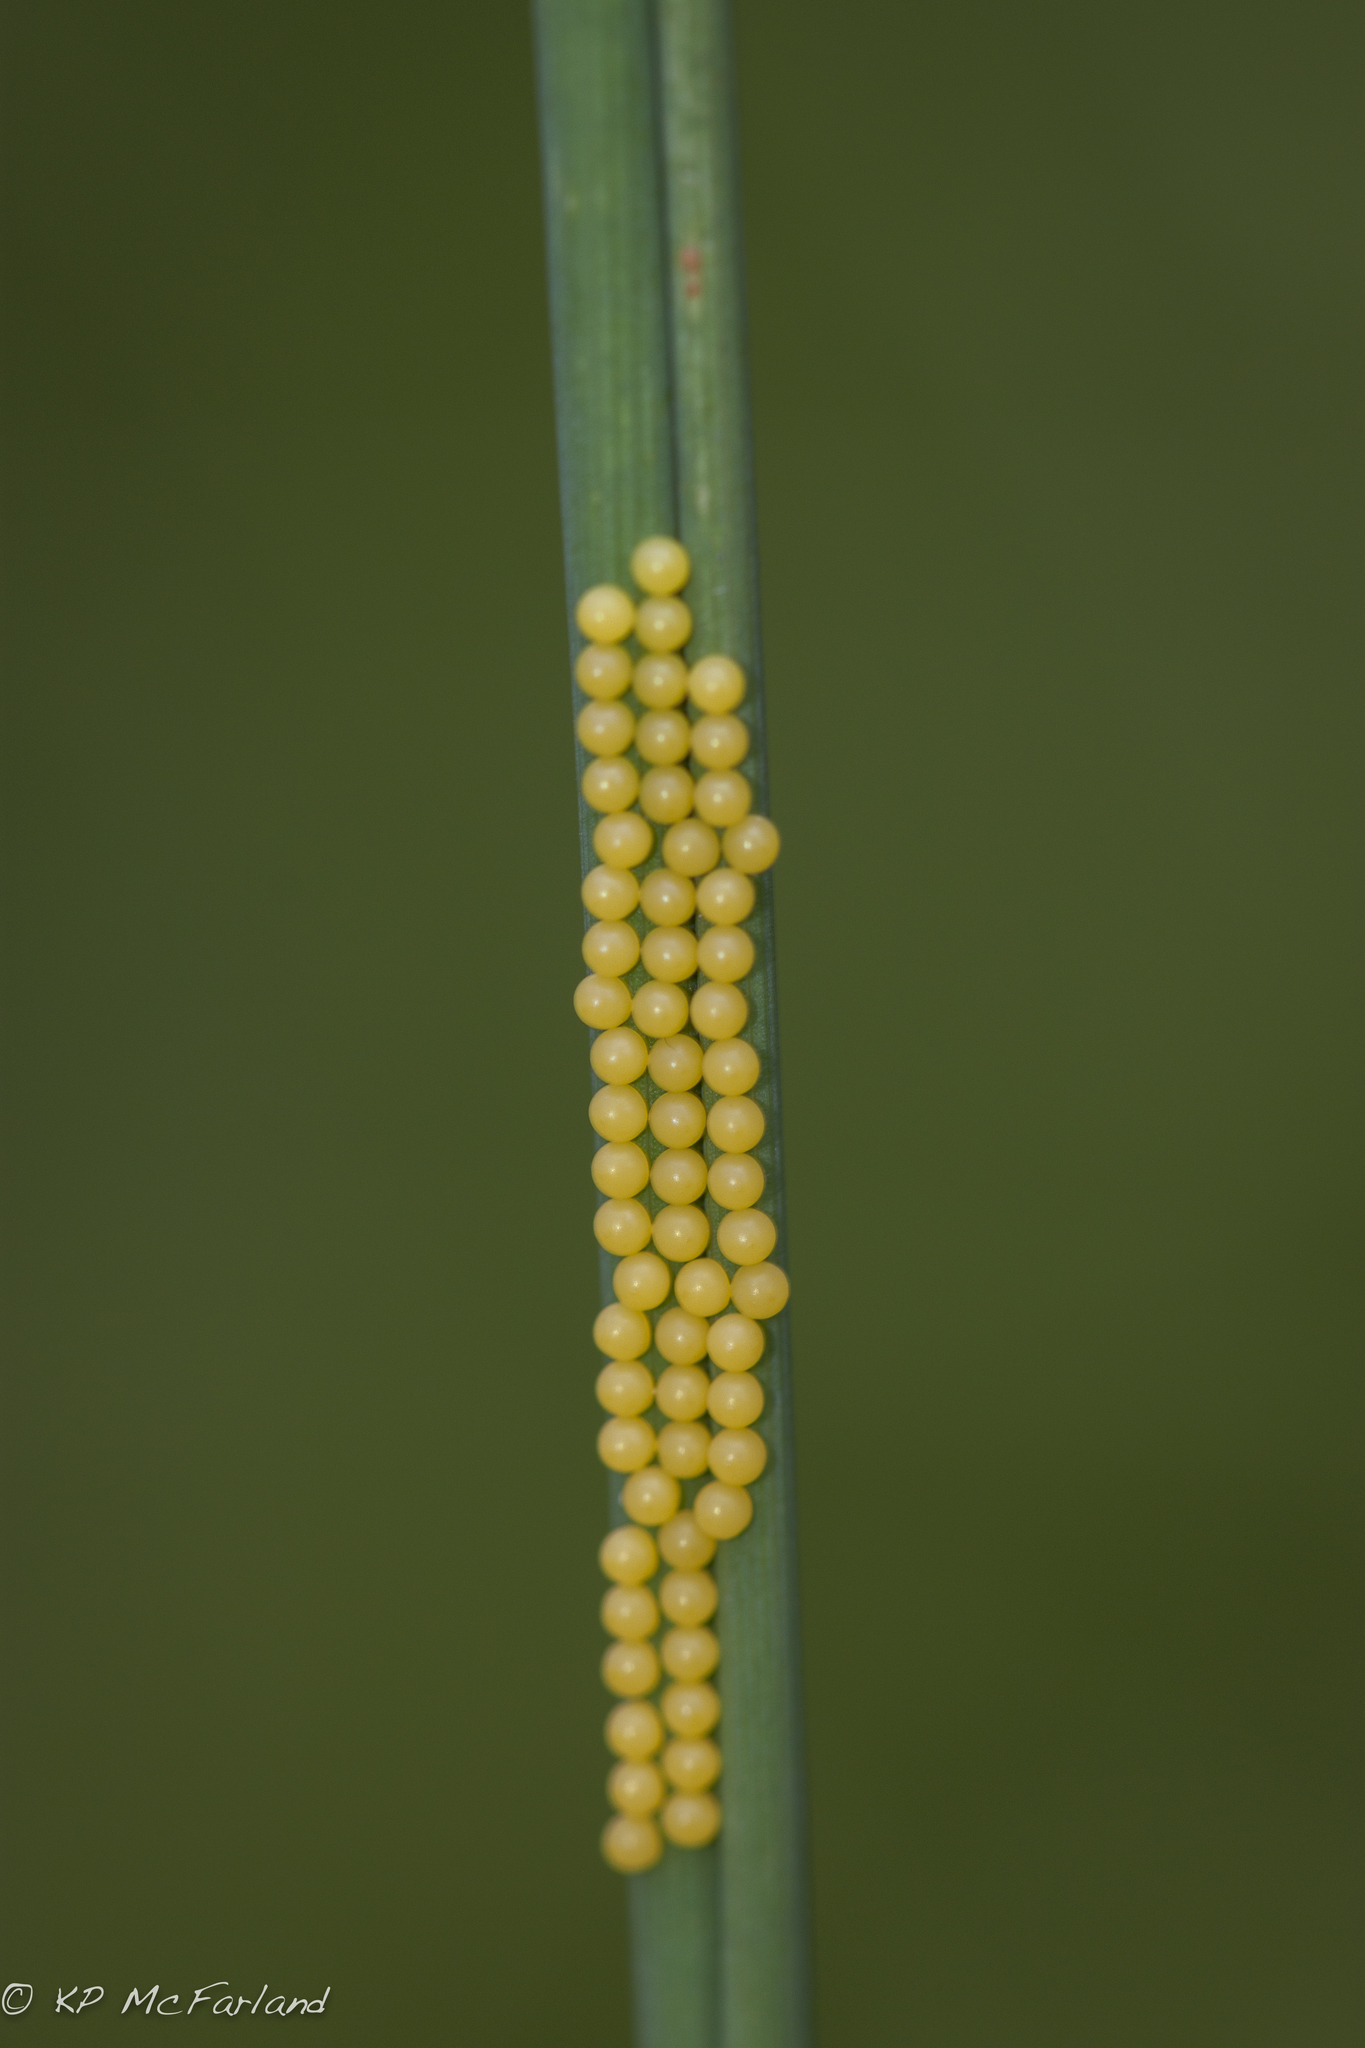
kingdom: Animalia
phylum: Arthropoda
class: Insecta
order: Lepidoptera
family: Erebidae
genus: Ctenucha
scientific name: Ctenucha virginica
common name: Virginia ctenucha moth
